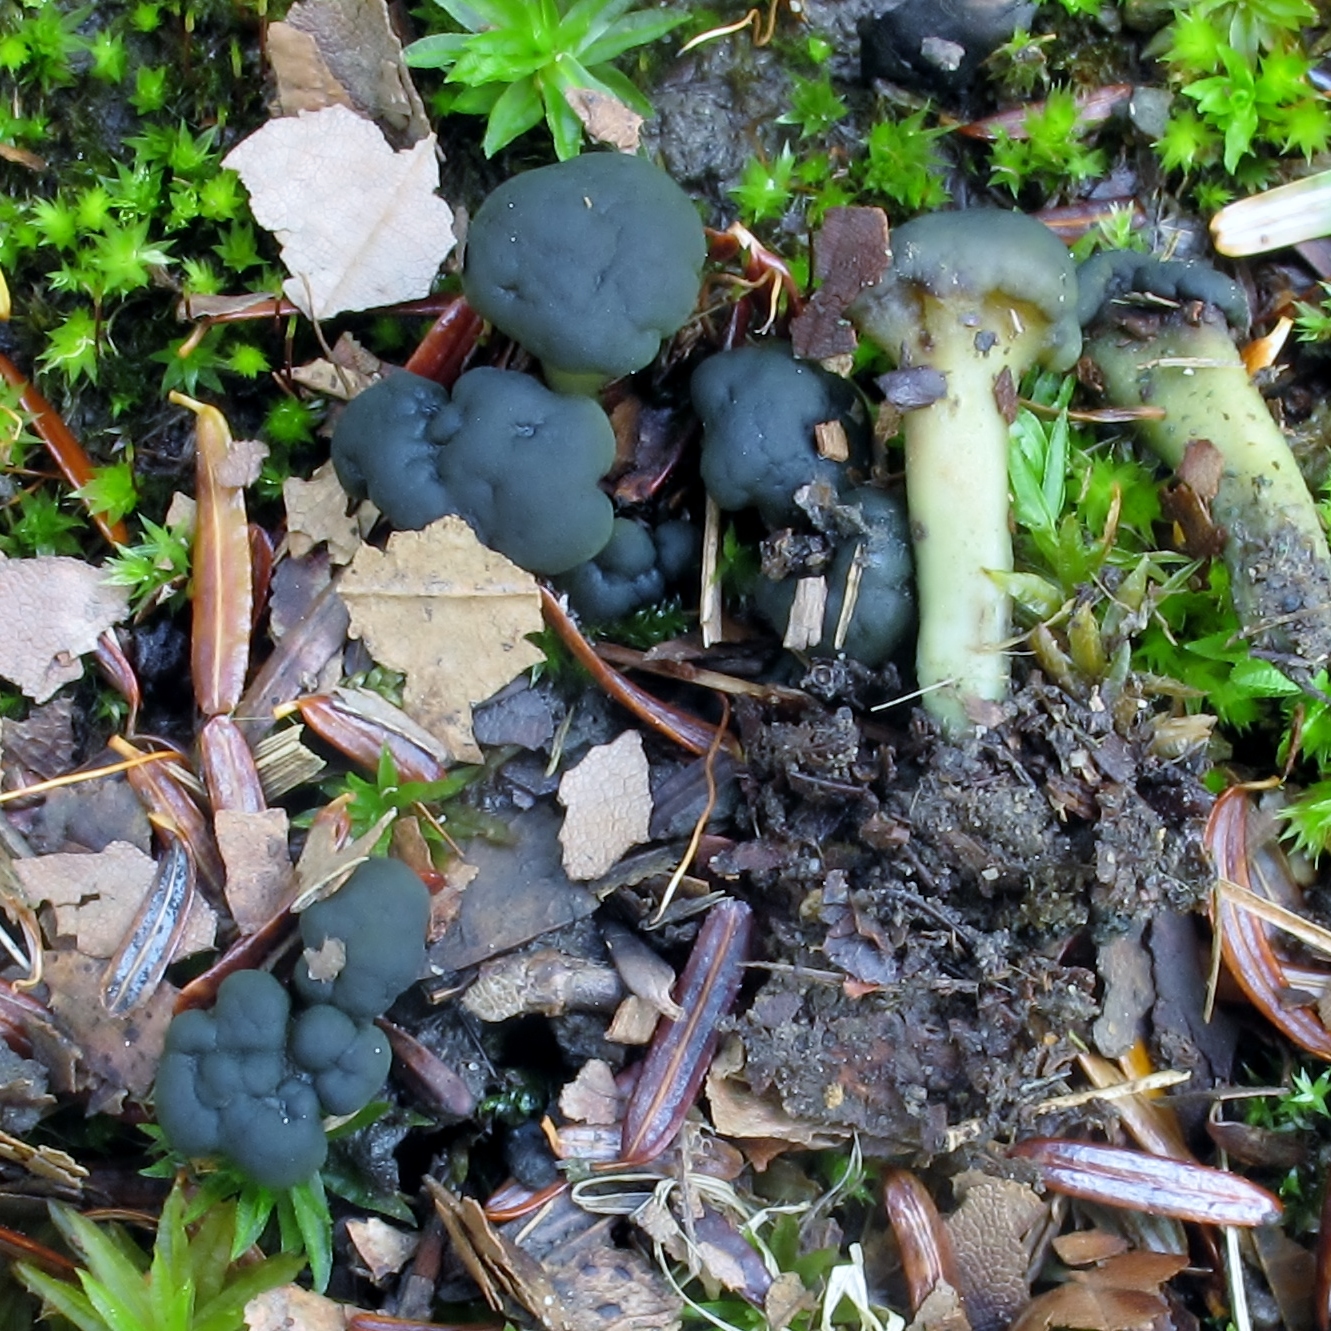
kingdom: Fungi
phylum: Ascomycota
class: Leotiomycetes
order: Leotiales
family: Leotiaceae
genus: Leotia
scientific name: Leotia lubrica
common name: Jellybaby
